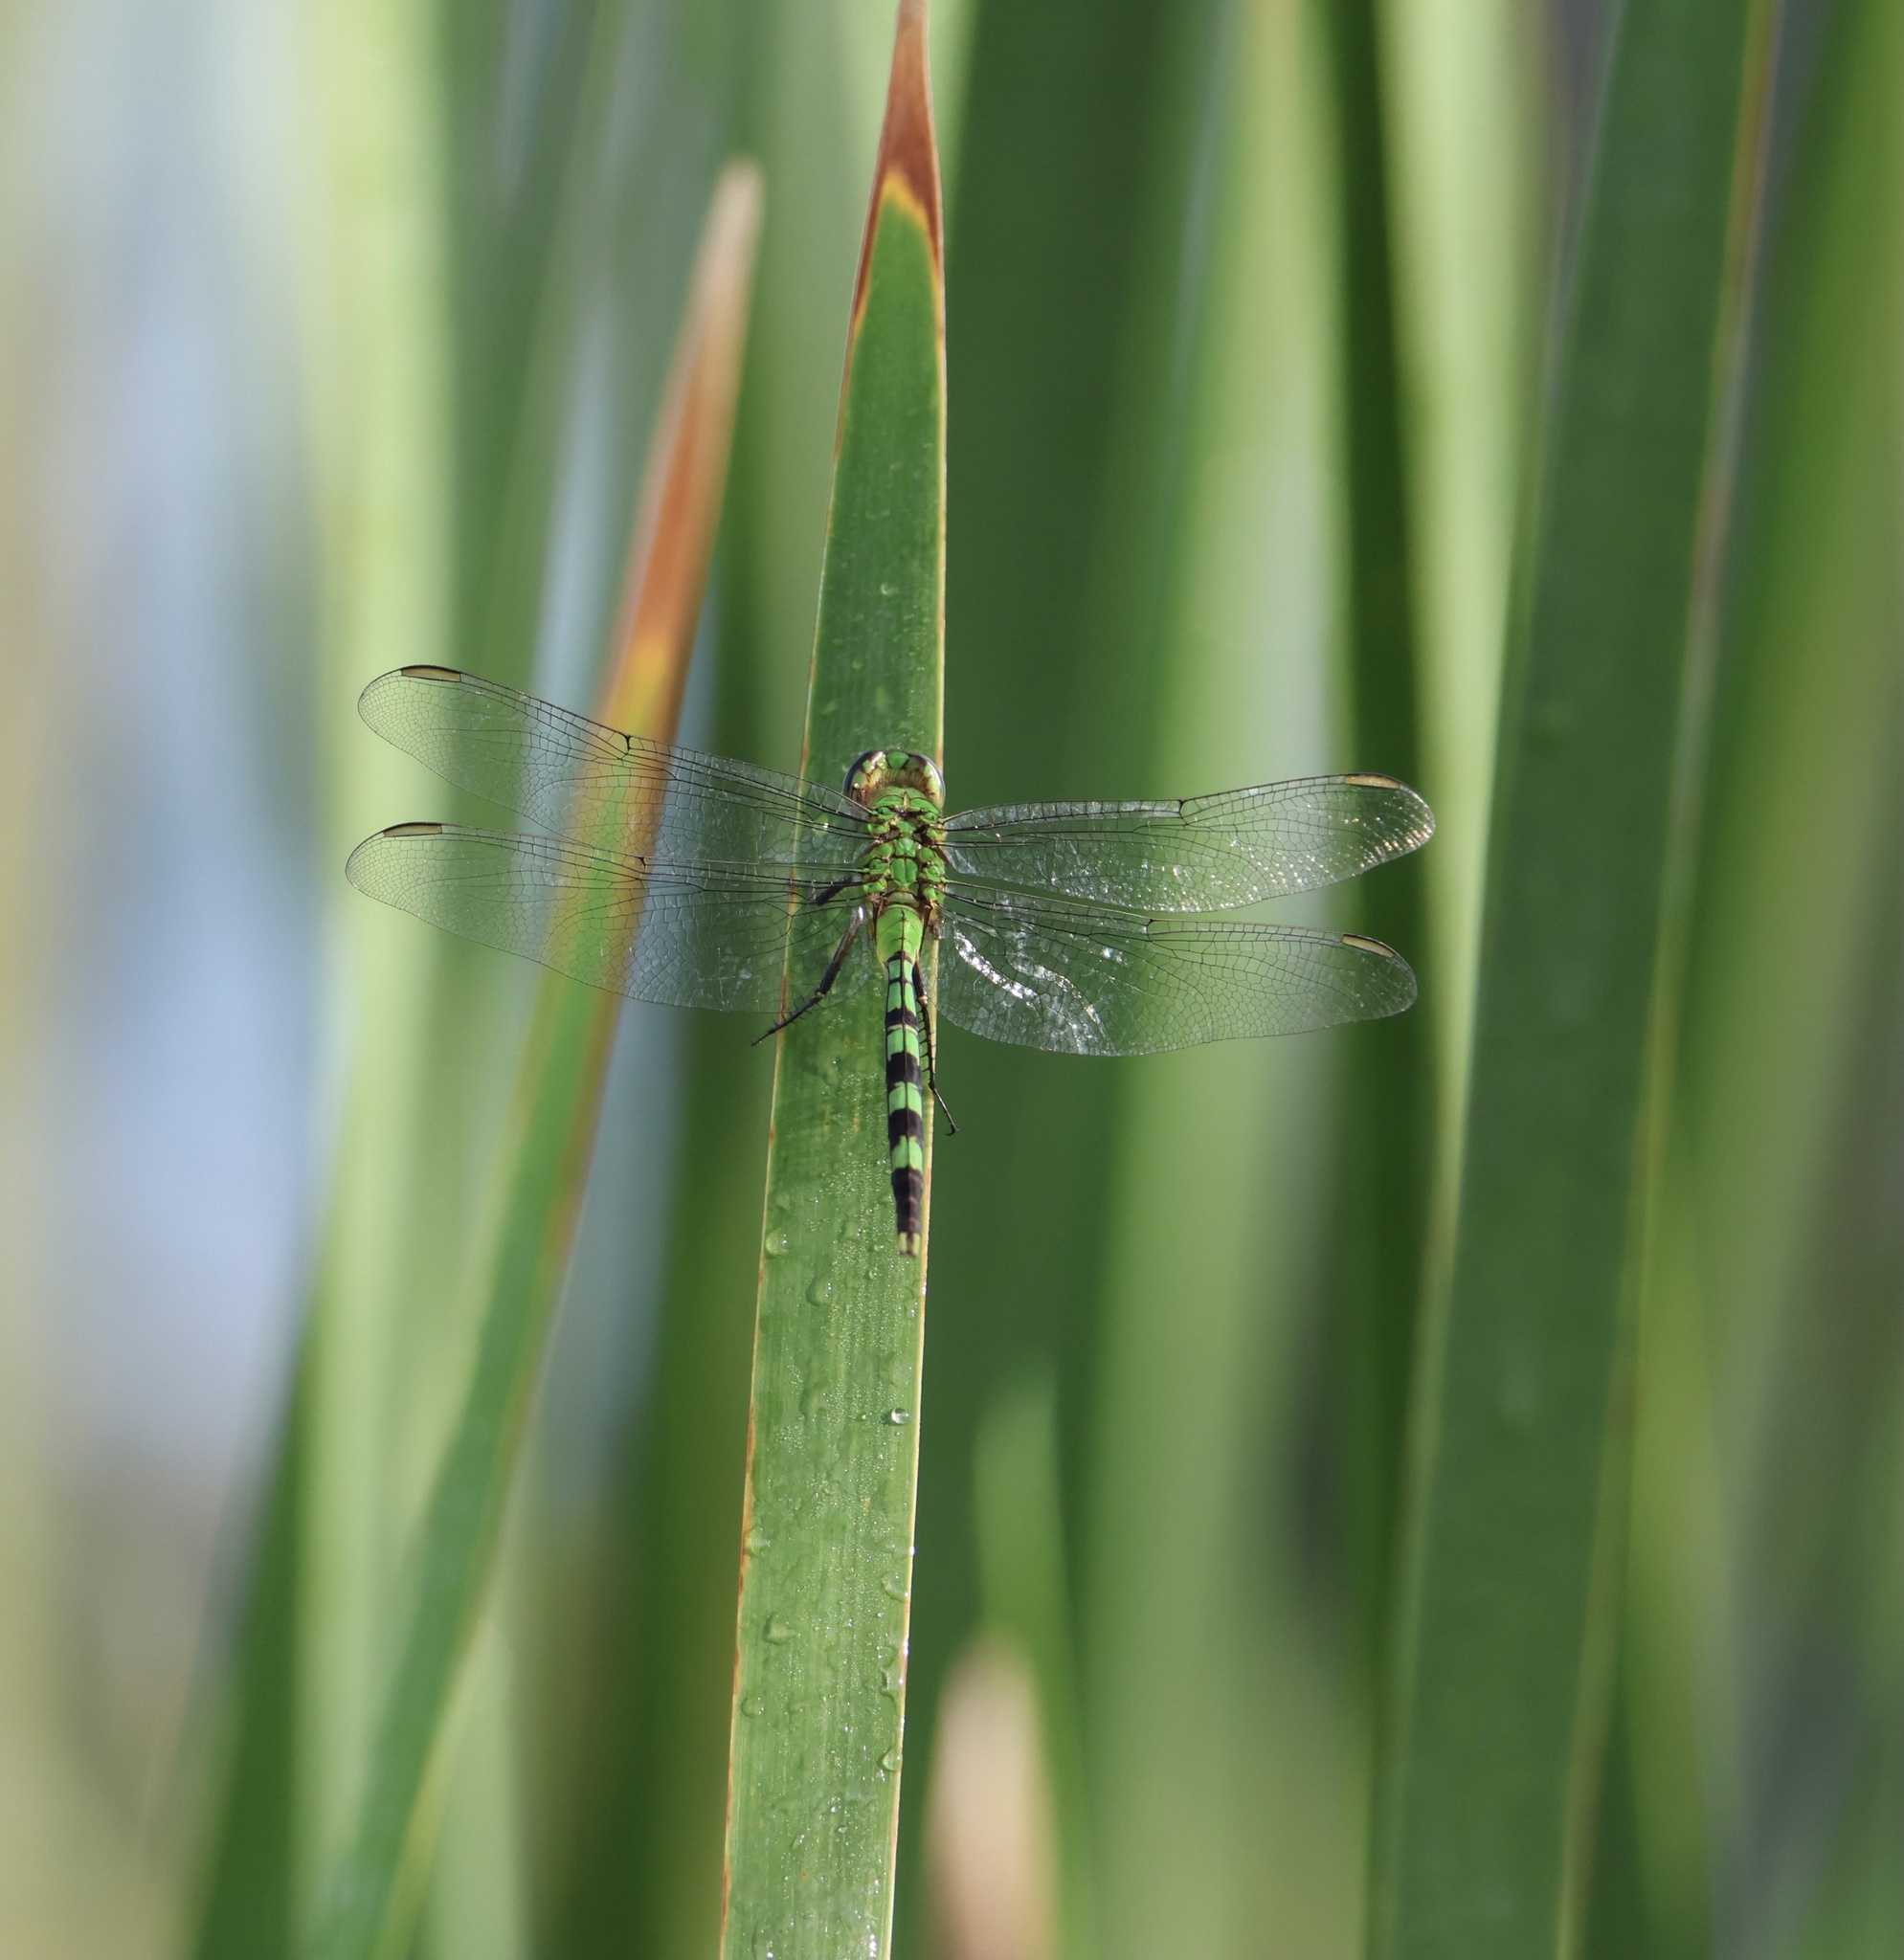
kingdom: Animalia
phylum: Arthropoda
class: Insecta
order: Odonata
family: Libellulidae
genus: Erythemis
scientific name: Erythemis vesiculosa
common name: Great pondhawk
